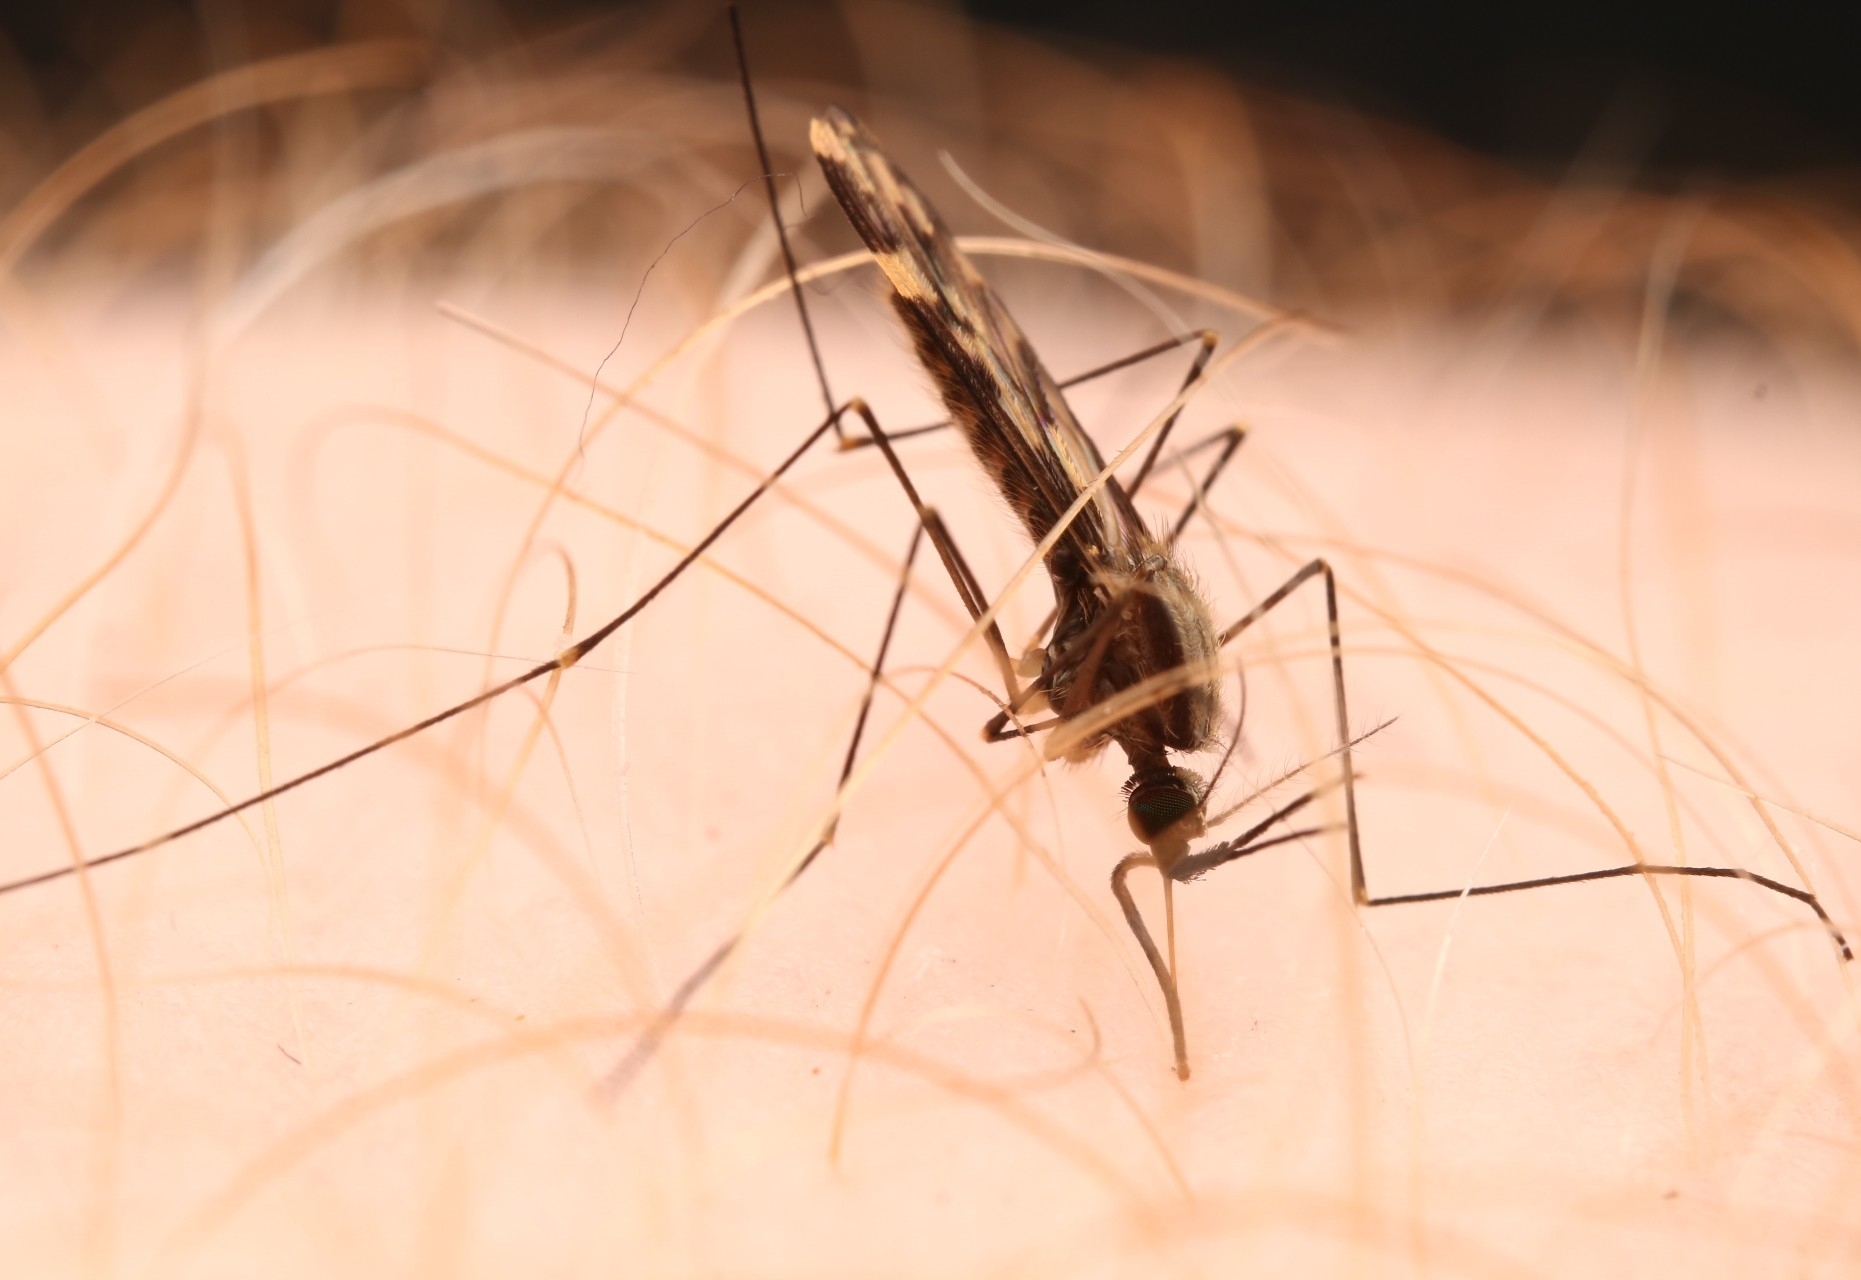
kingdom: Animalia
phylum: Arthropoda
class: Insecta
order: Diptera
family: Culicidae
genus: Anopheles
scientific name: Anopheles punctipennis
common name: Woodland malaria mosquito
